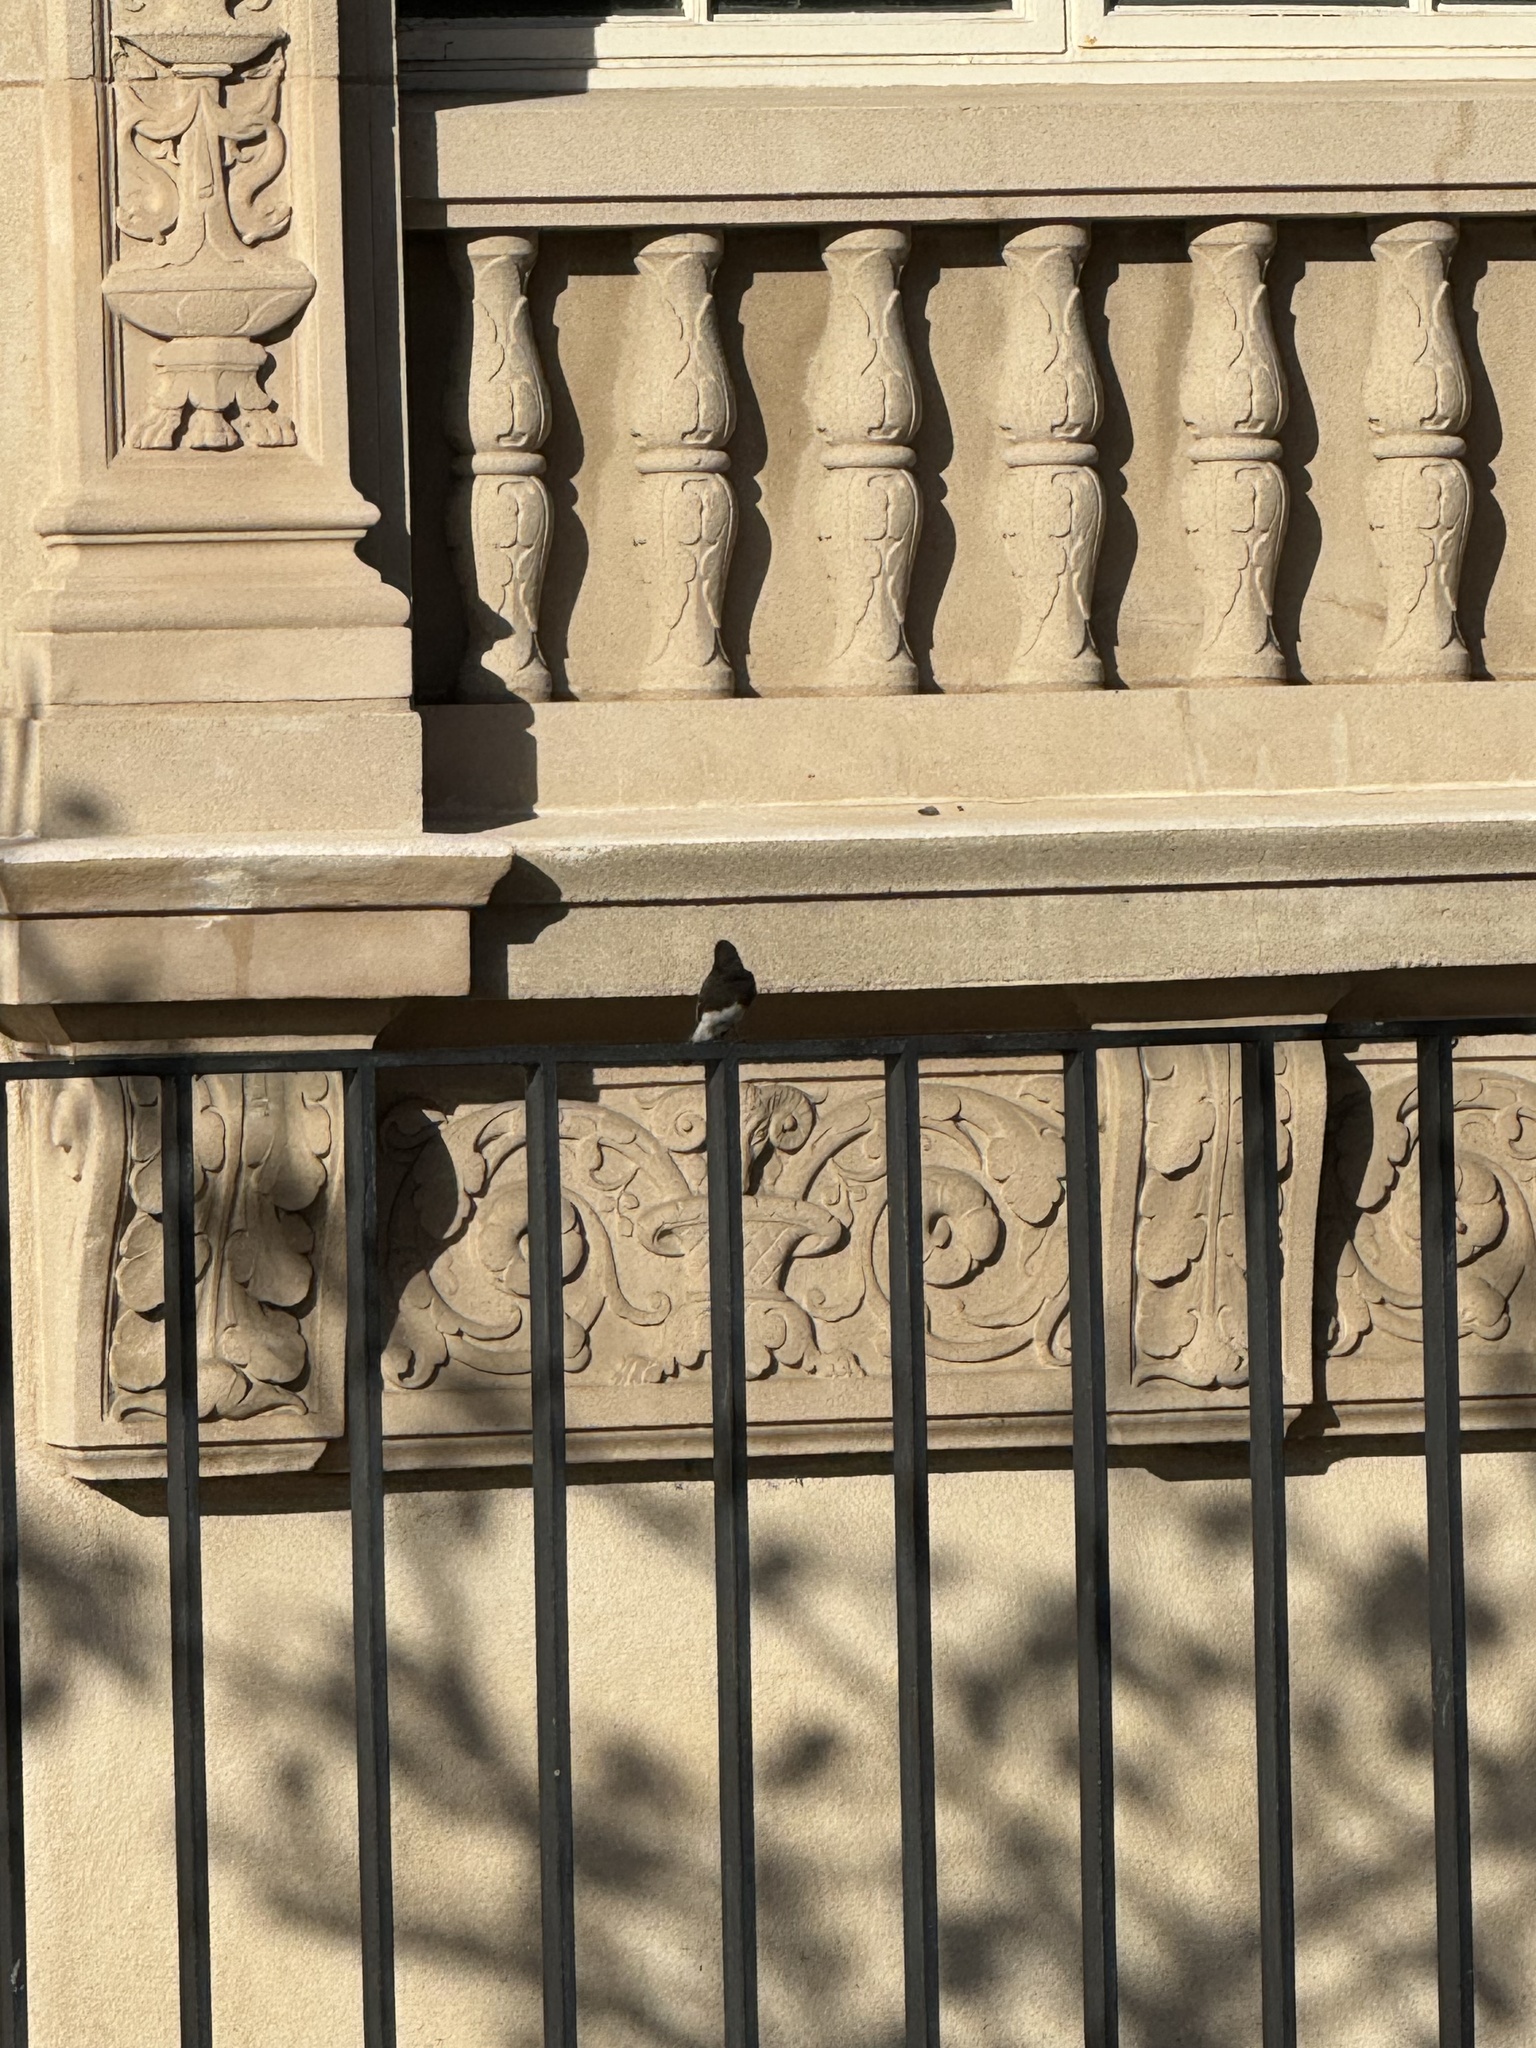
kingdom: Animalia
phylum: Chordata
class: Aves
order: Passeriformes
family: Tyrannidae
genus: Sayornis
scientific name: Sayornis nigricans
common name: Black phoebe
